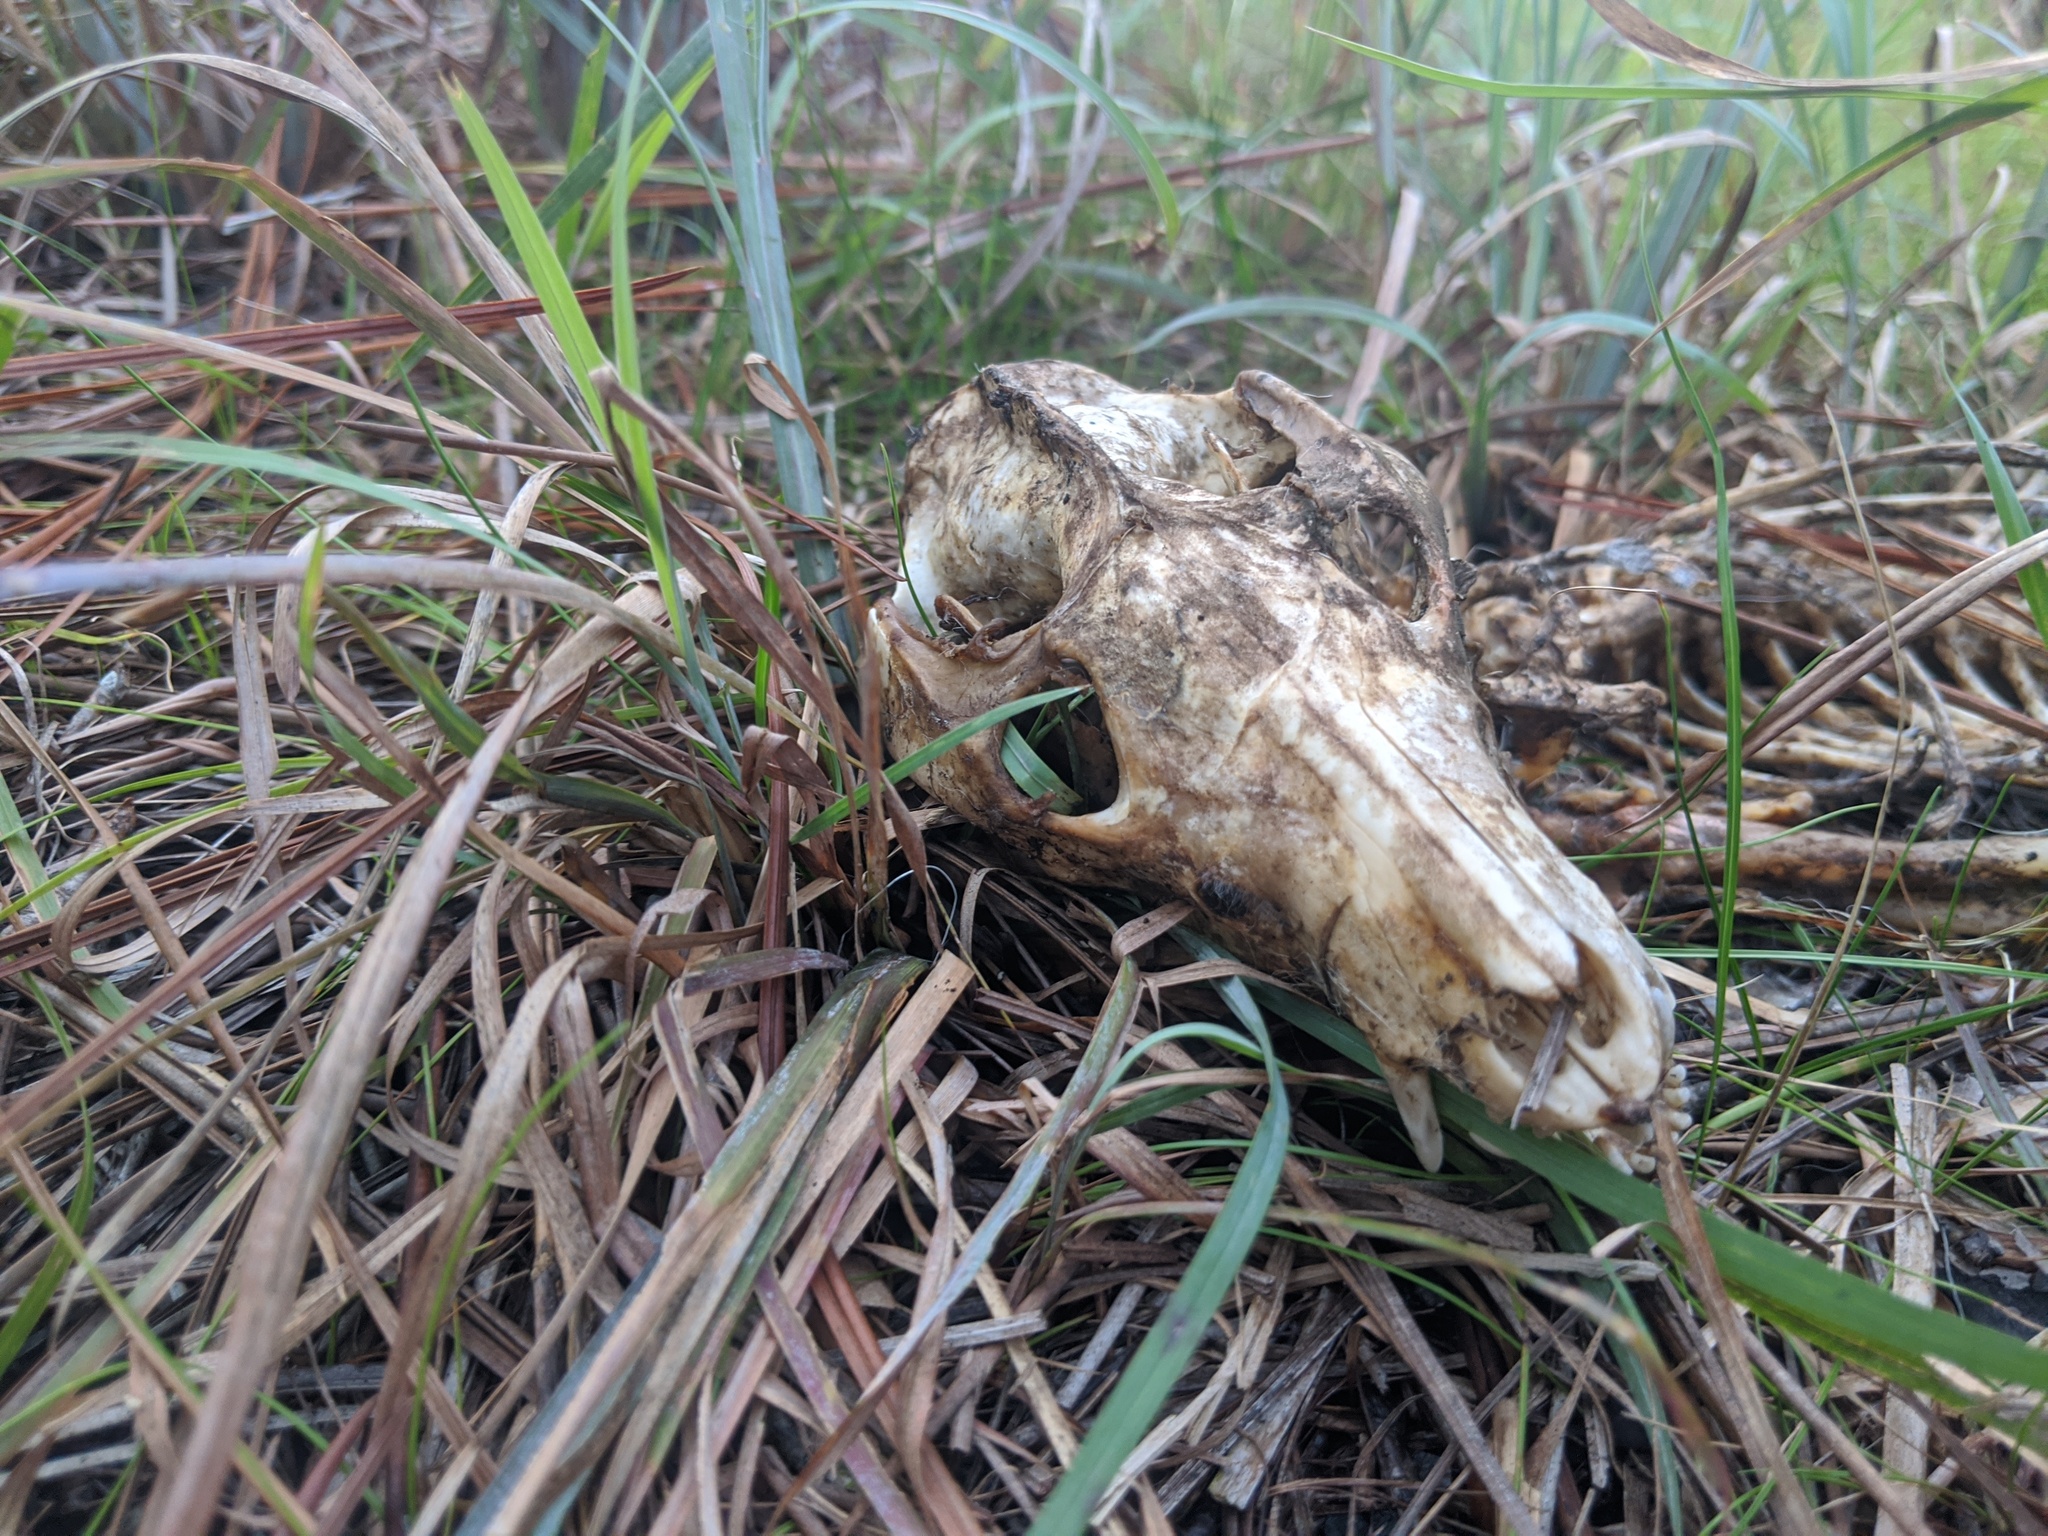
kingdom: Animalia
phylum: Chordata
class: Mammalia
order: Didelphimorphia
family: Didelphidae
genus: Didelphis
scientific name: Didelphis virginiana
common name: Virginia opossum
